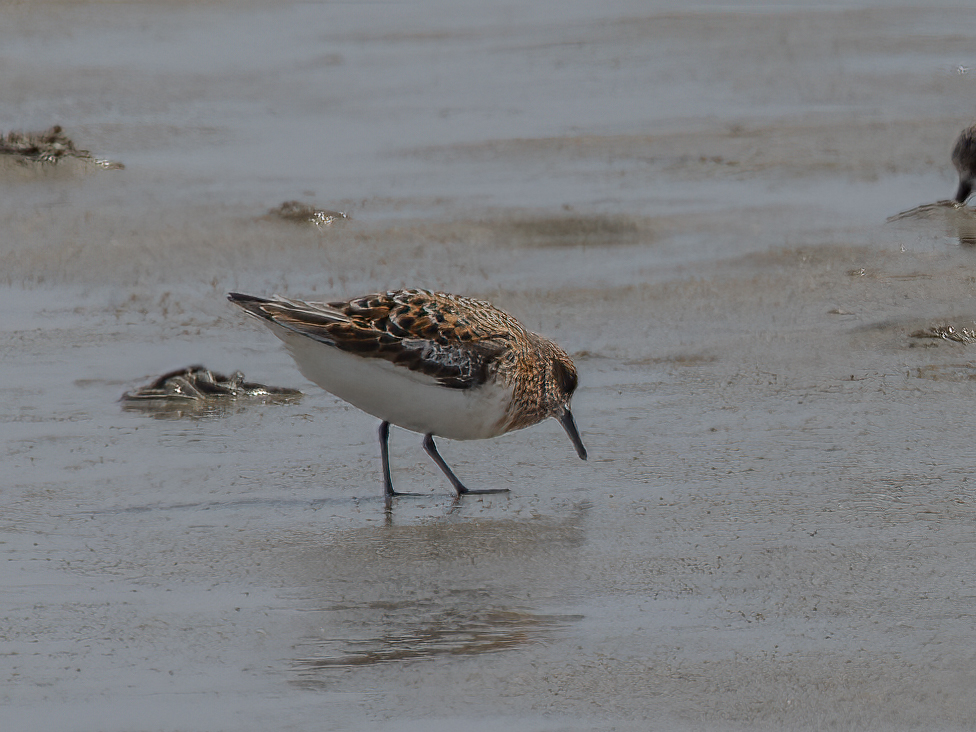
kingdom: Animalia
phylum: Chordata
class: Aves
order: Charadriiformes
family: Scolopacidae
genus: Calidris
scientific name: Calidris alba
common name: Sanderling
